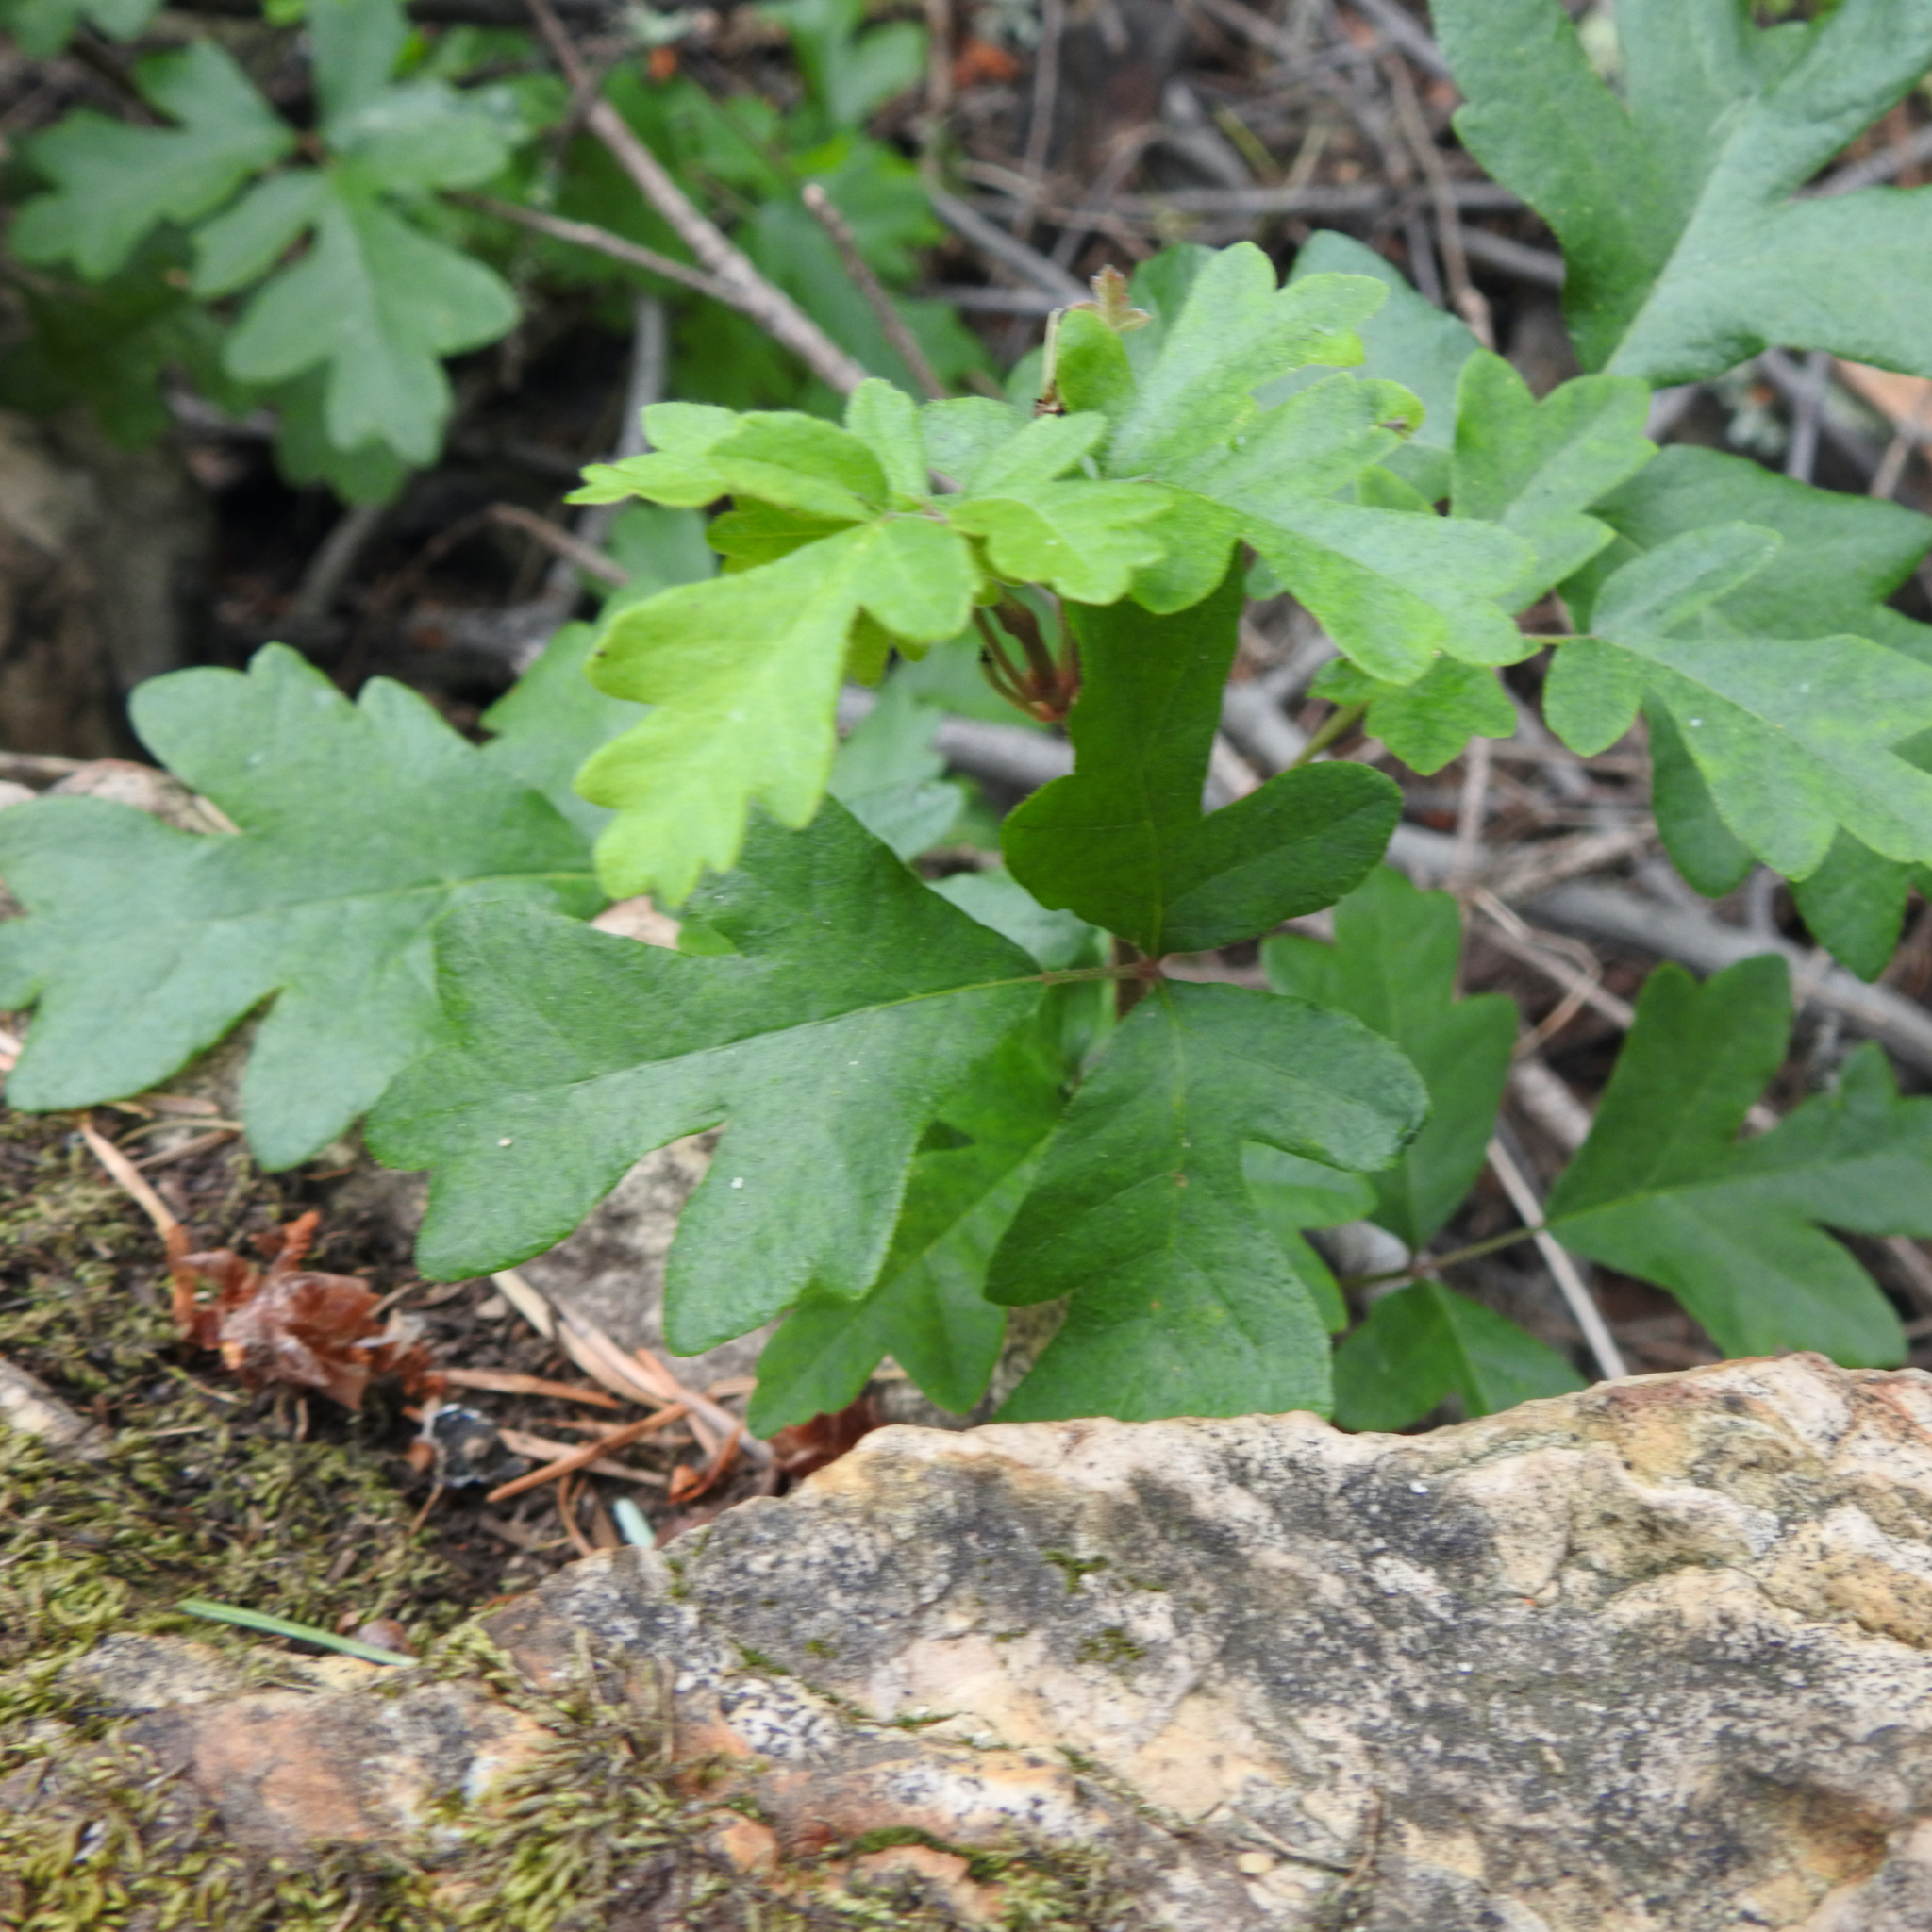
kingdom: Plantae
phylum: Tracheophyta
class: Magnoliopsida
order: Sapindales
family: Anacardiaceae
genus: Toxicodendron
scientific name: Toxicodendron diversilobum
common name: Pacific poison-oak
